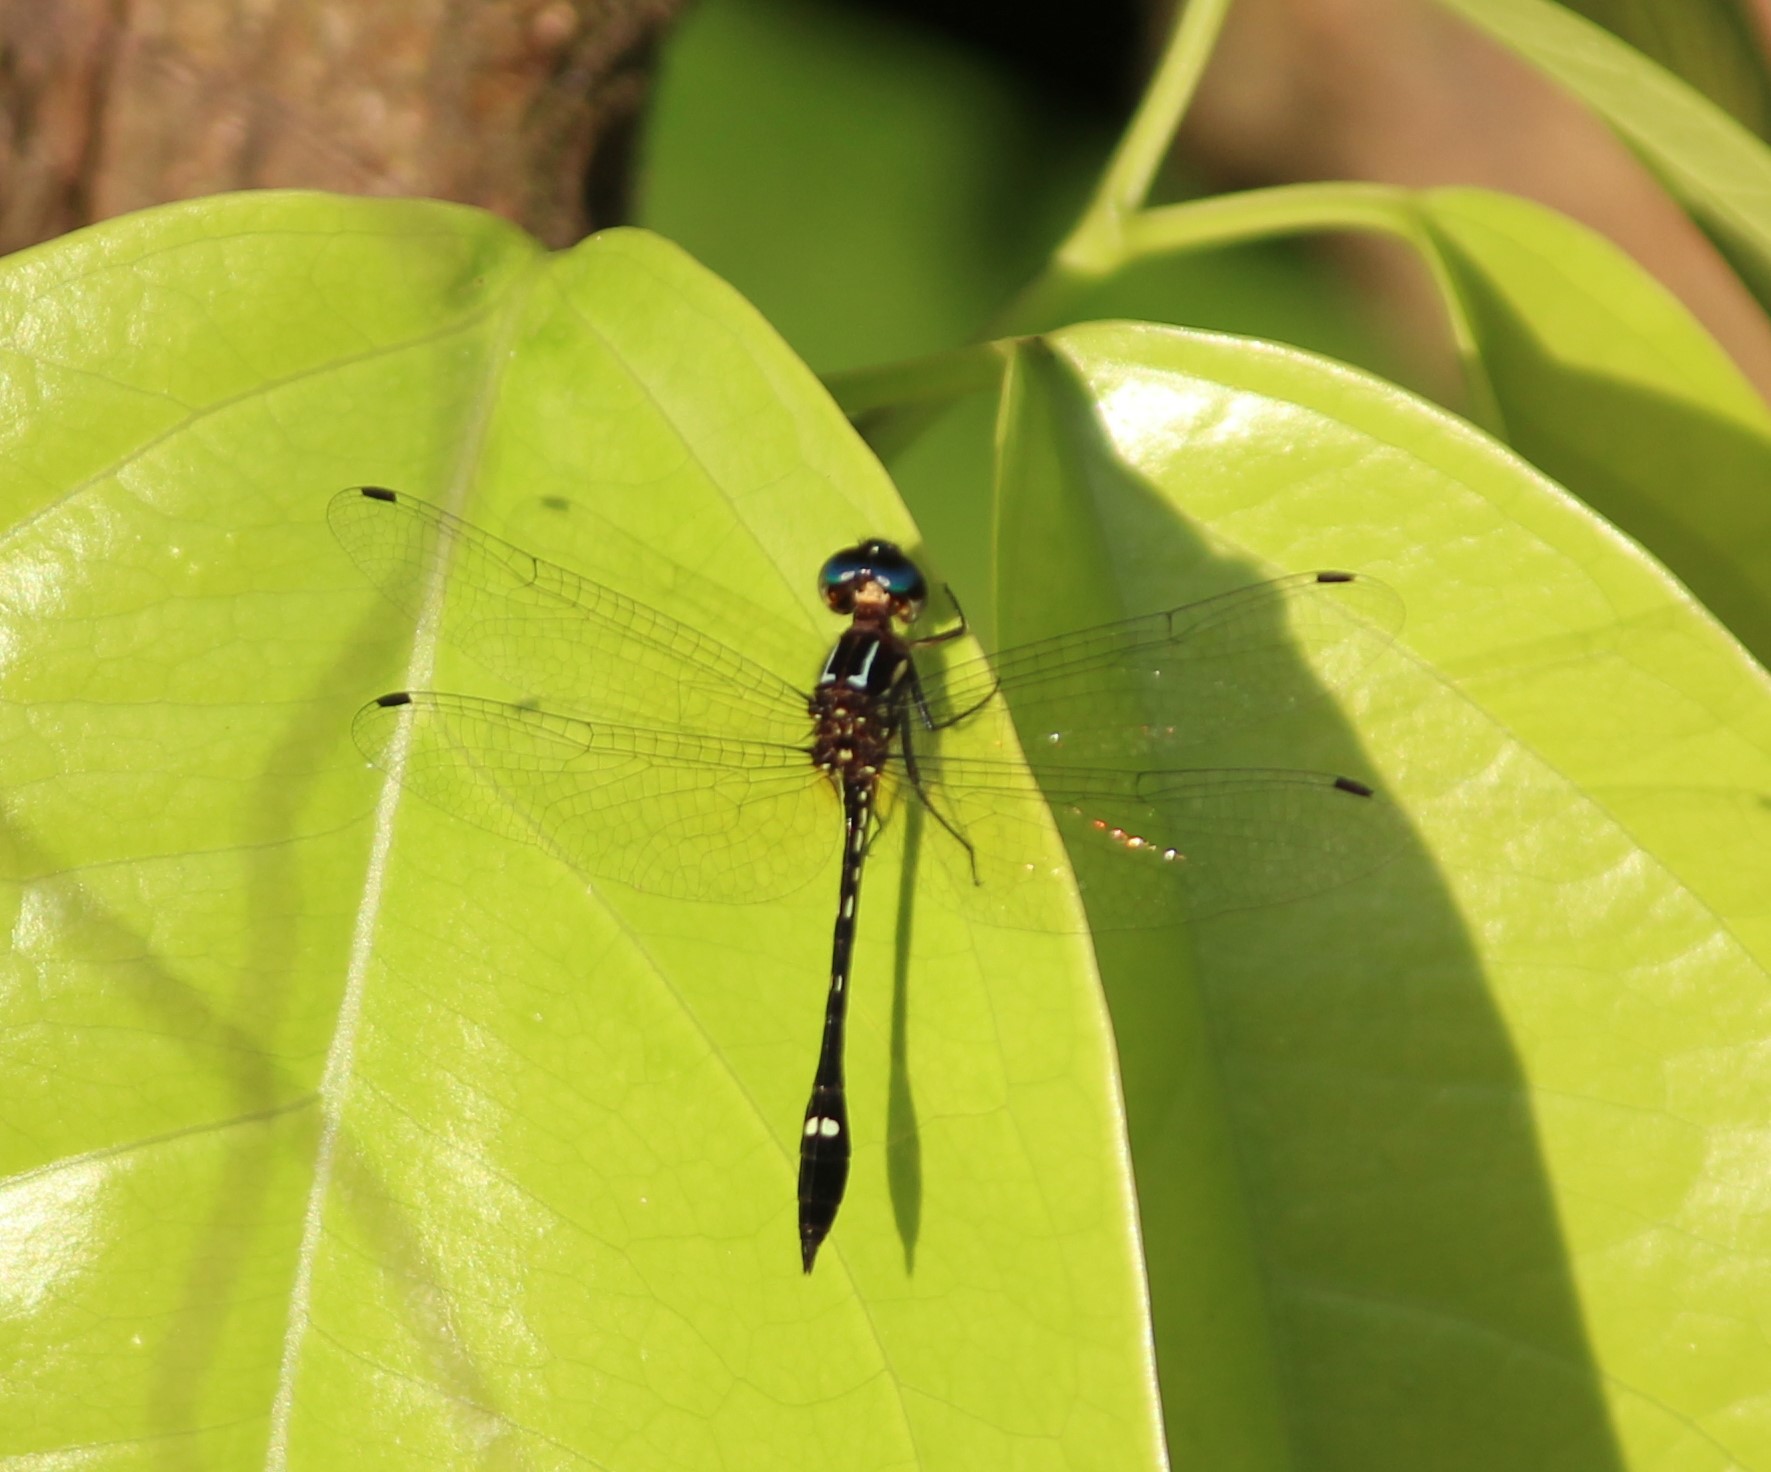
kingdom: Animalia
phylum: Arthropoda
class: Insecta
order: Odonata
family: Libellulidae
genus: Macrothemis
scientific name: Macrothemis inequiunguis
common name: Jade-striped sylph
